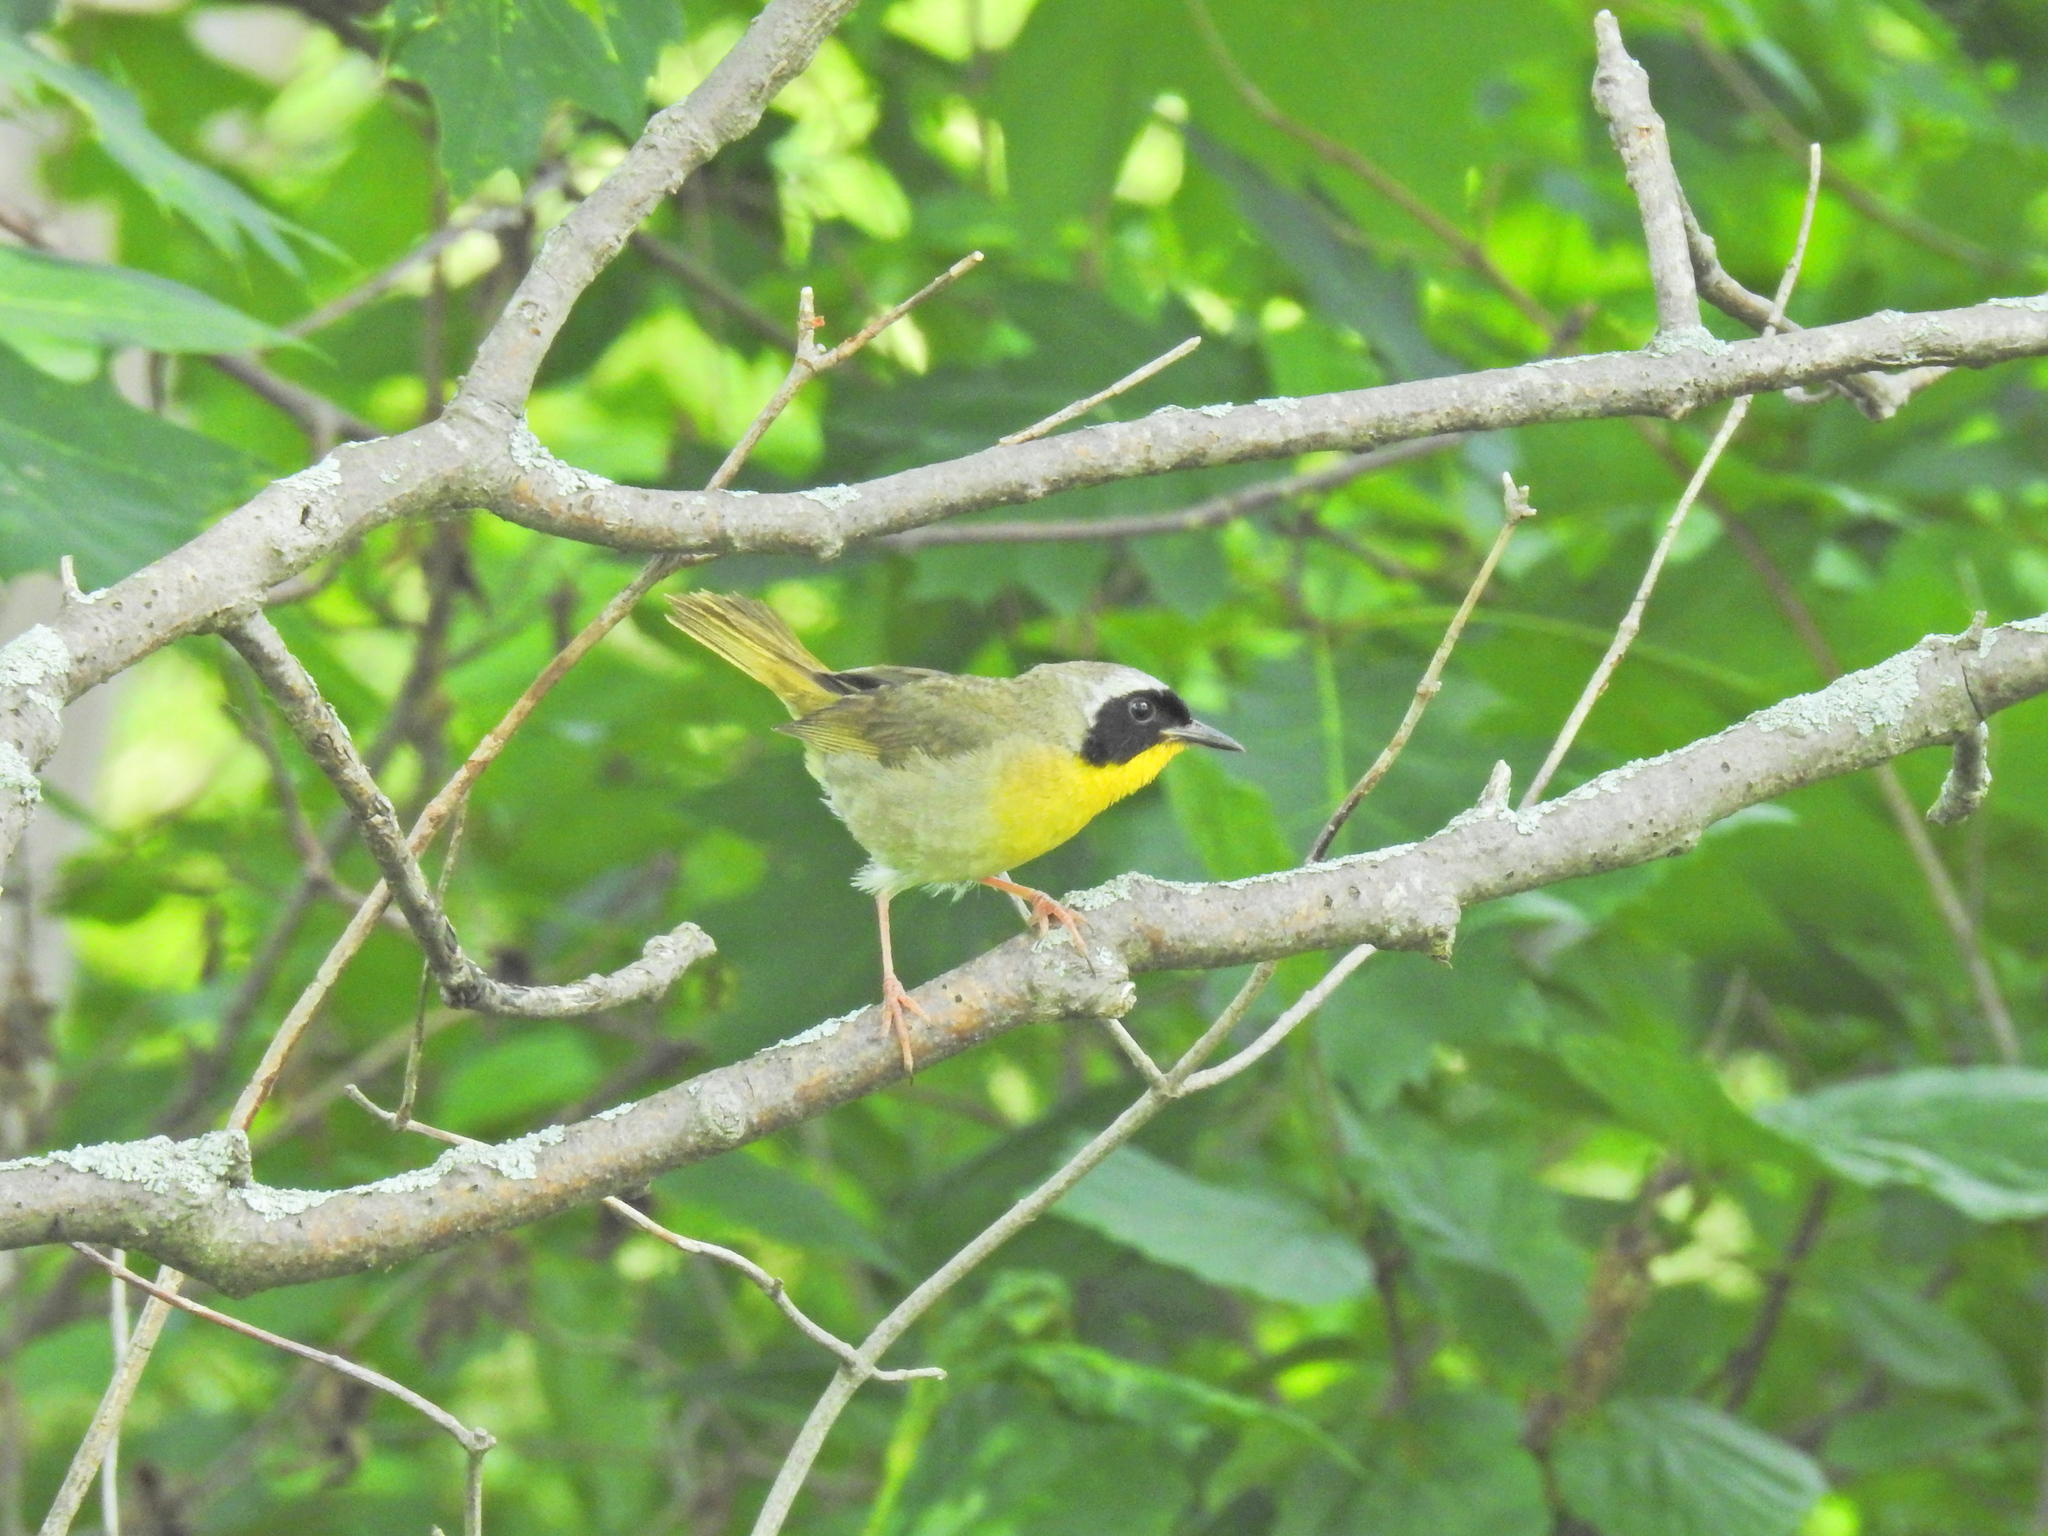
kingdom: Animalia
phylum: Chordata
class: Aves
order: Passeriformes
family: Parulidae
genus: Geothlypis
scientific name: Geothlypis trichas
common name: Common yellowthroat
